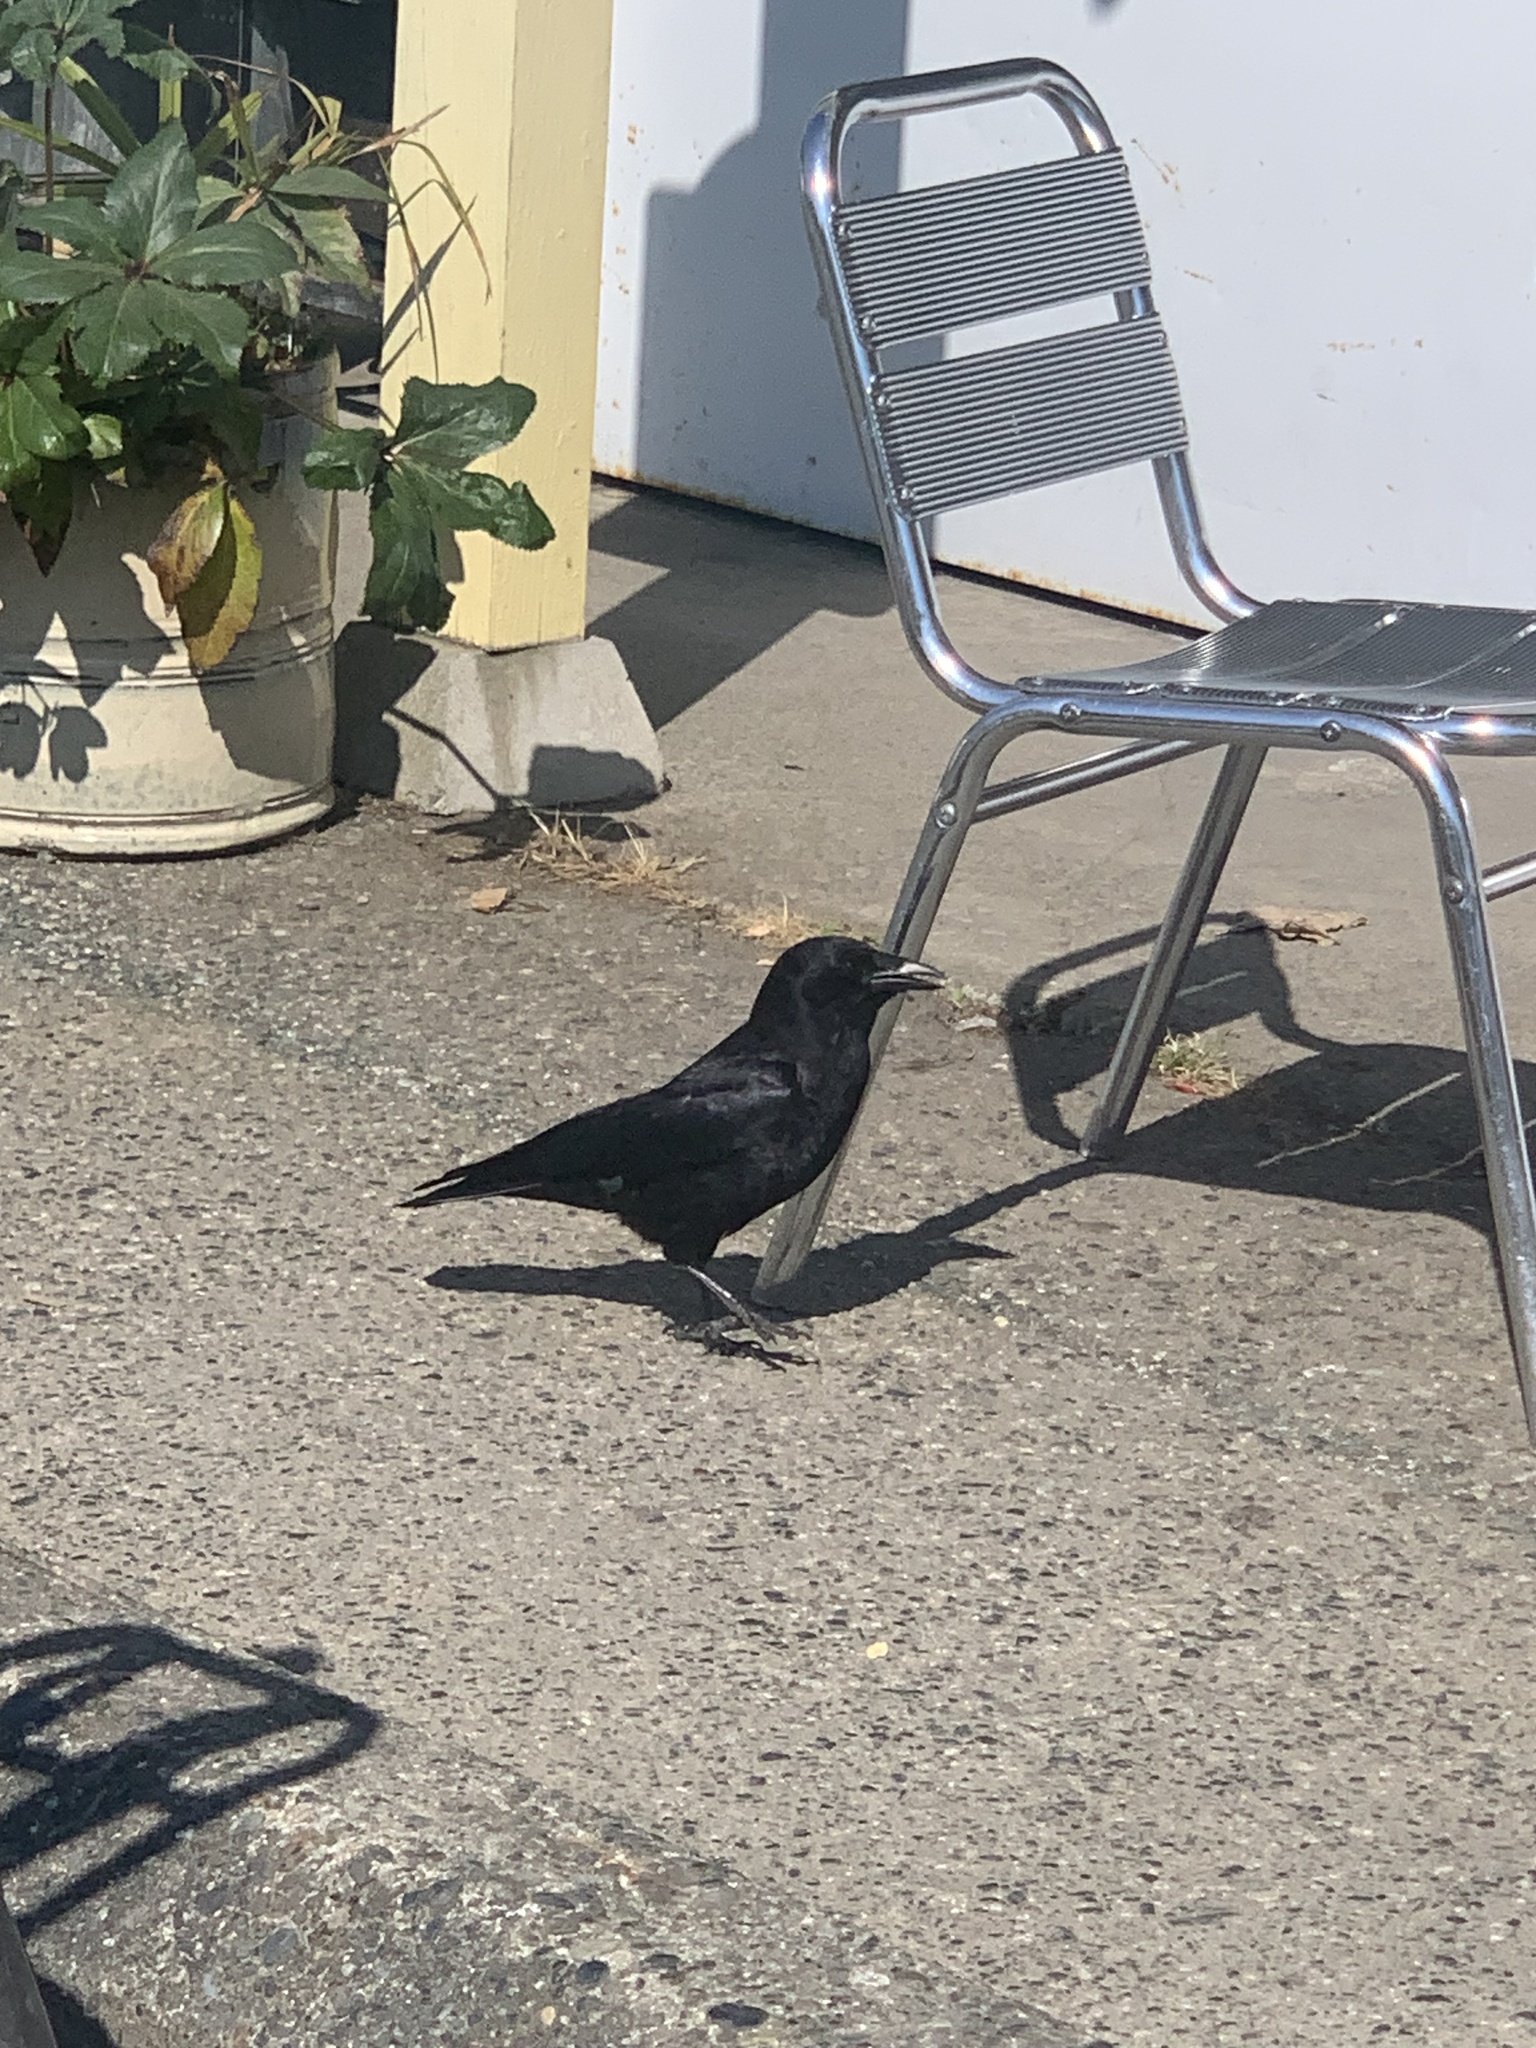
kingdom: Animalia
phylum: Chordata
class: Aves
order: Passeriformes
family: Corvidae
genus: Corvus
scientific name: Corvus brachyrhynchos
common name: American crow
